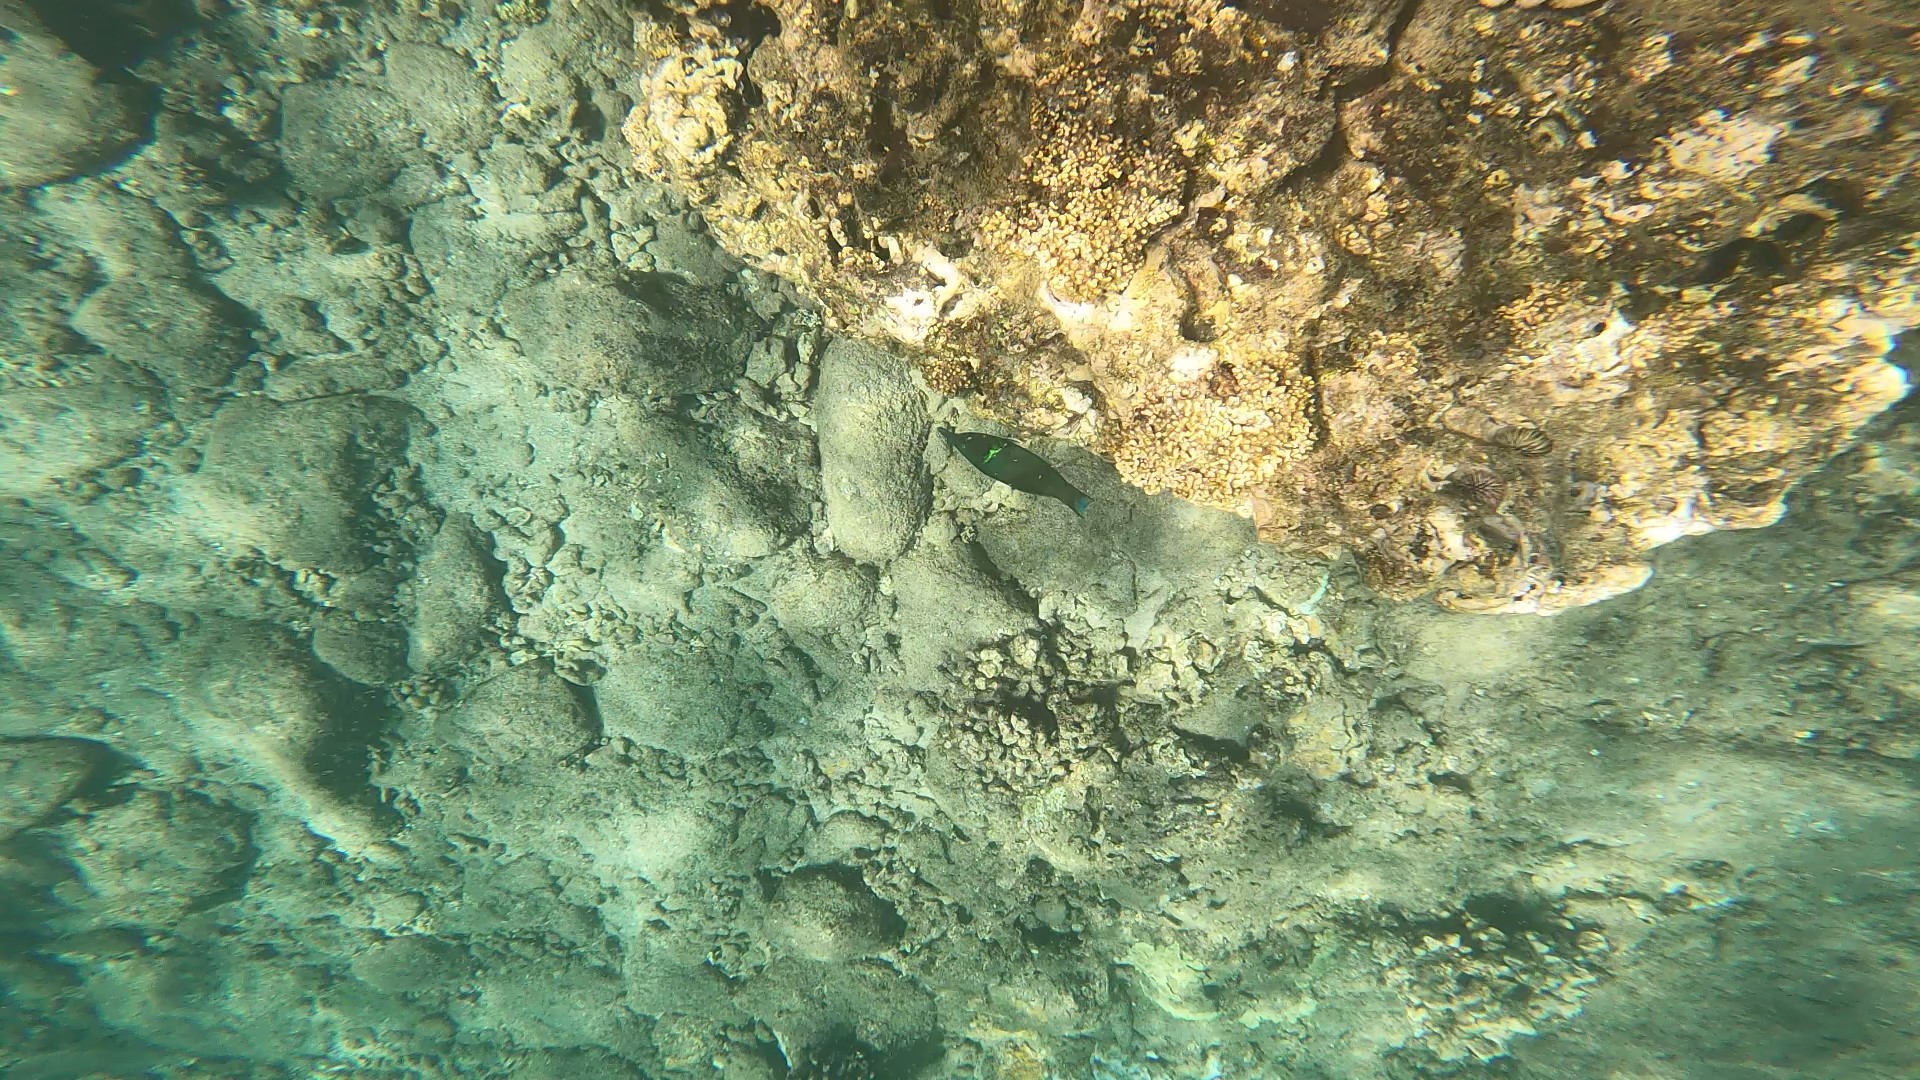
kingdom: Animalia
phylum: Chordata
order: Perciformes
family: Labridae
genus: Gomphosus
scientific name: Gomphosus varius
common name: Bird wrasse
